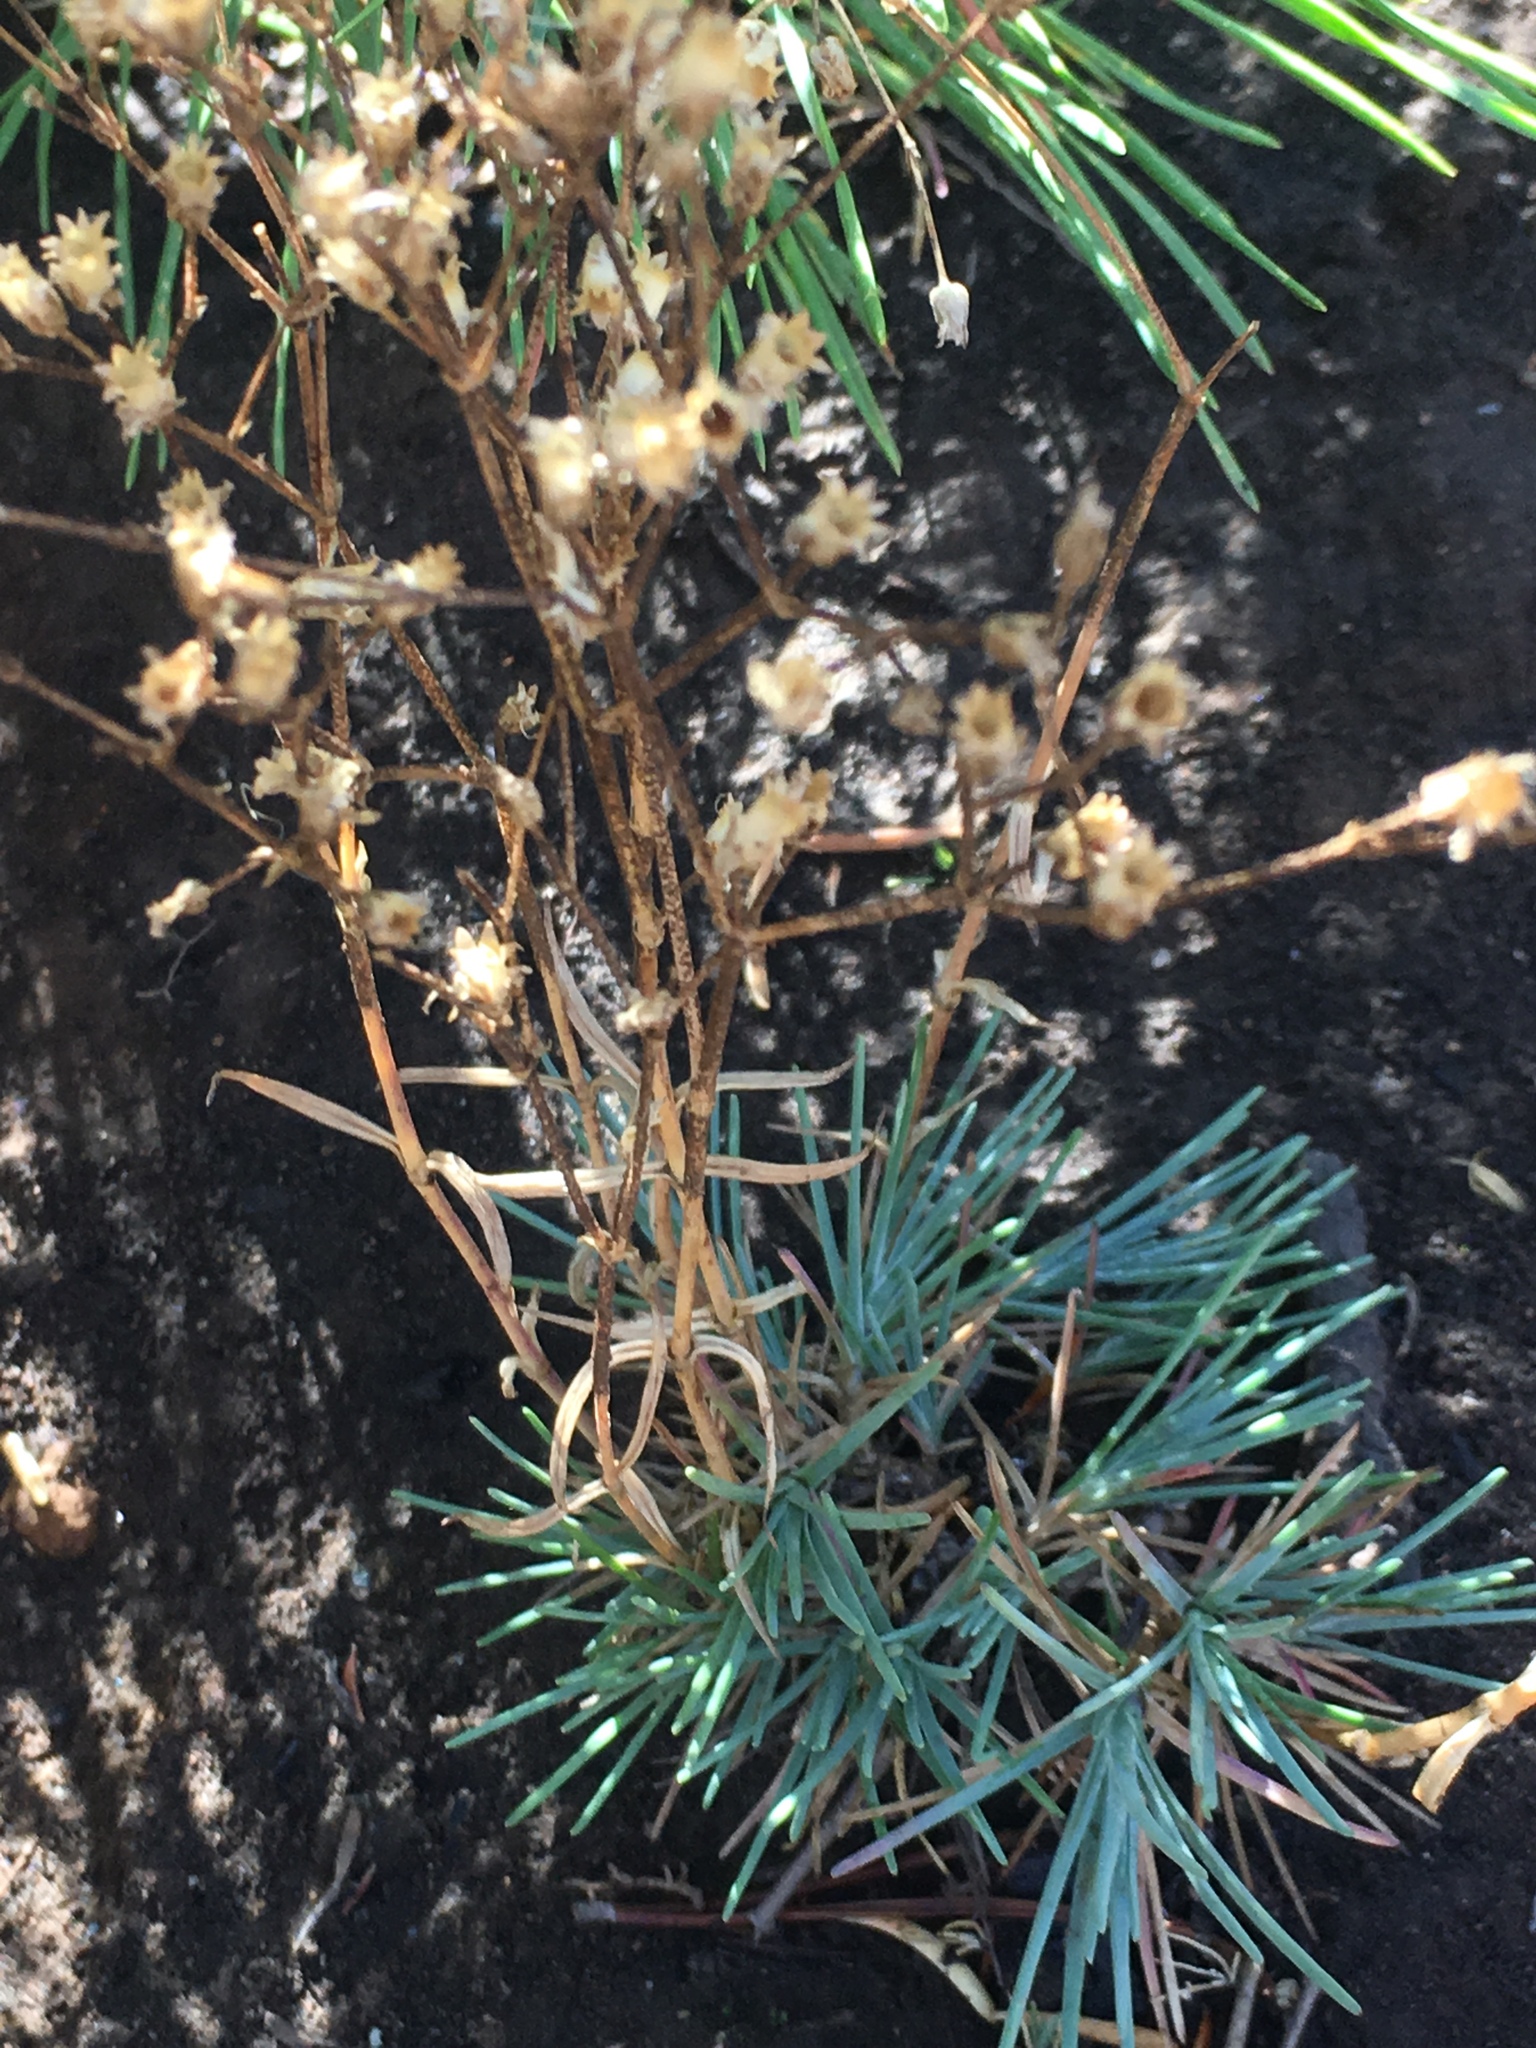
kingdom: Plantae
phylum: Tracheophyta
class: Magnoliopsida
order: Caryophyllales
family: Caryophyllaceae
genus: Eremogone
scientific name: Eremogone pumicola
